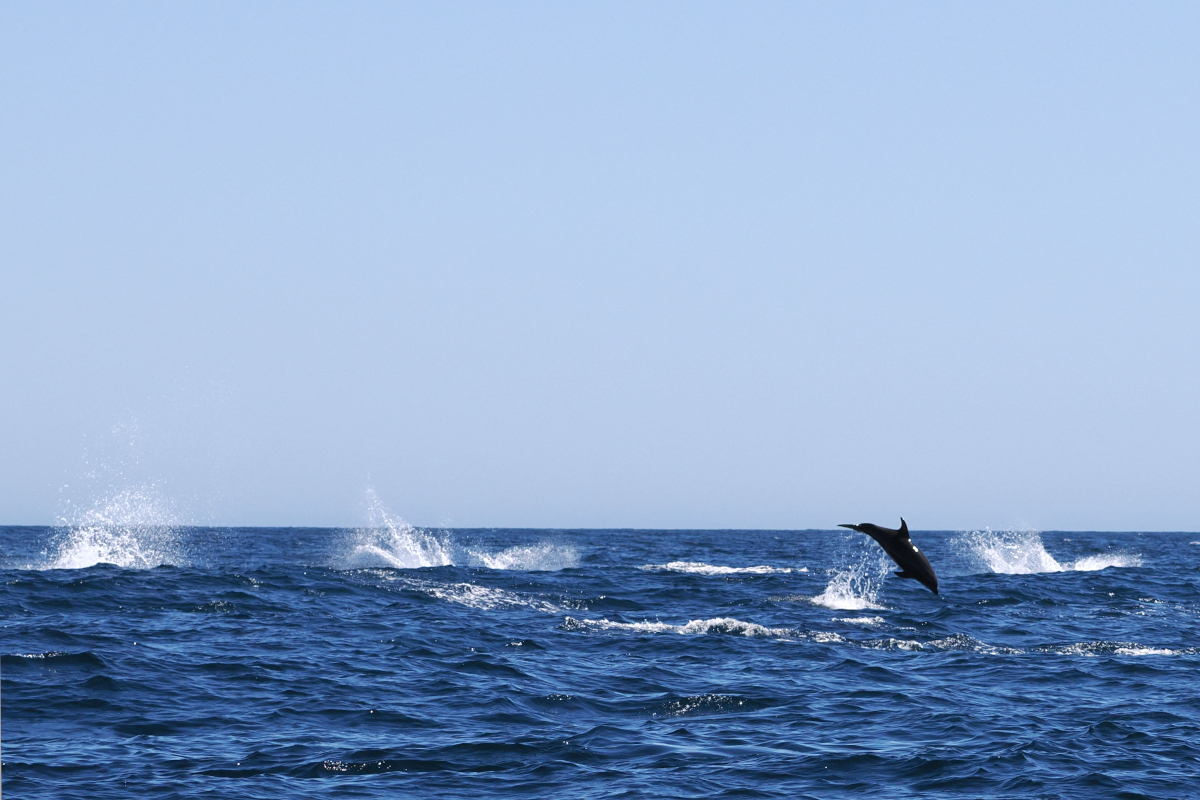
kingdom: Animalia
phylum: Chordata
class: Mammalia
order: Cetacea
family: Delphinidae
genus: Tursiops
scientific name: Tursiops truncatus
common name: Bottlenose dolphin
